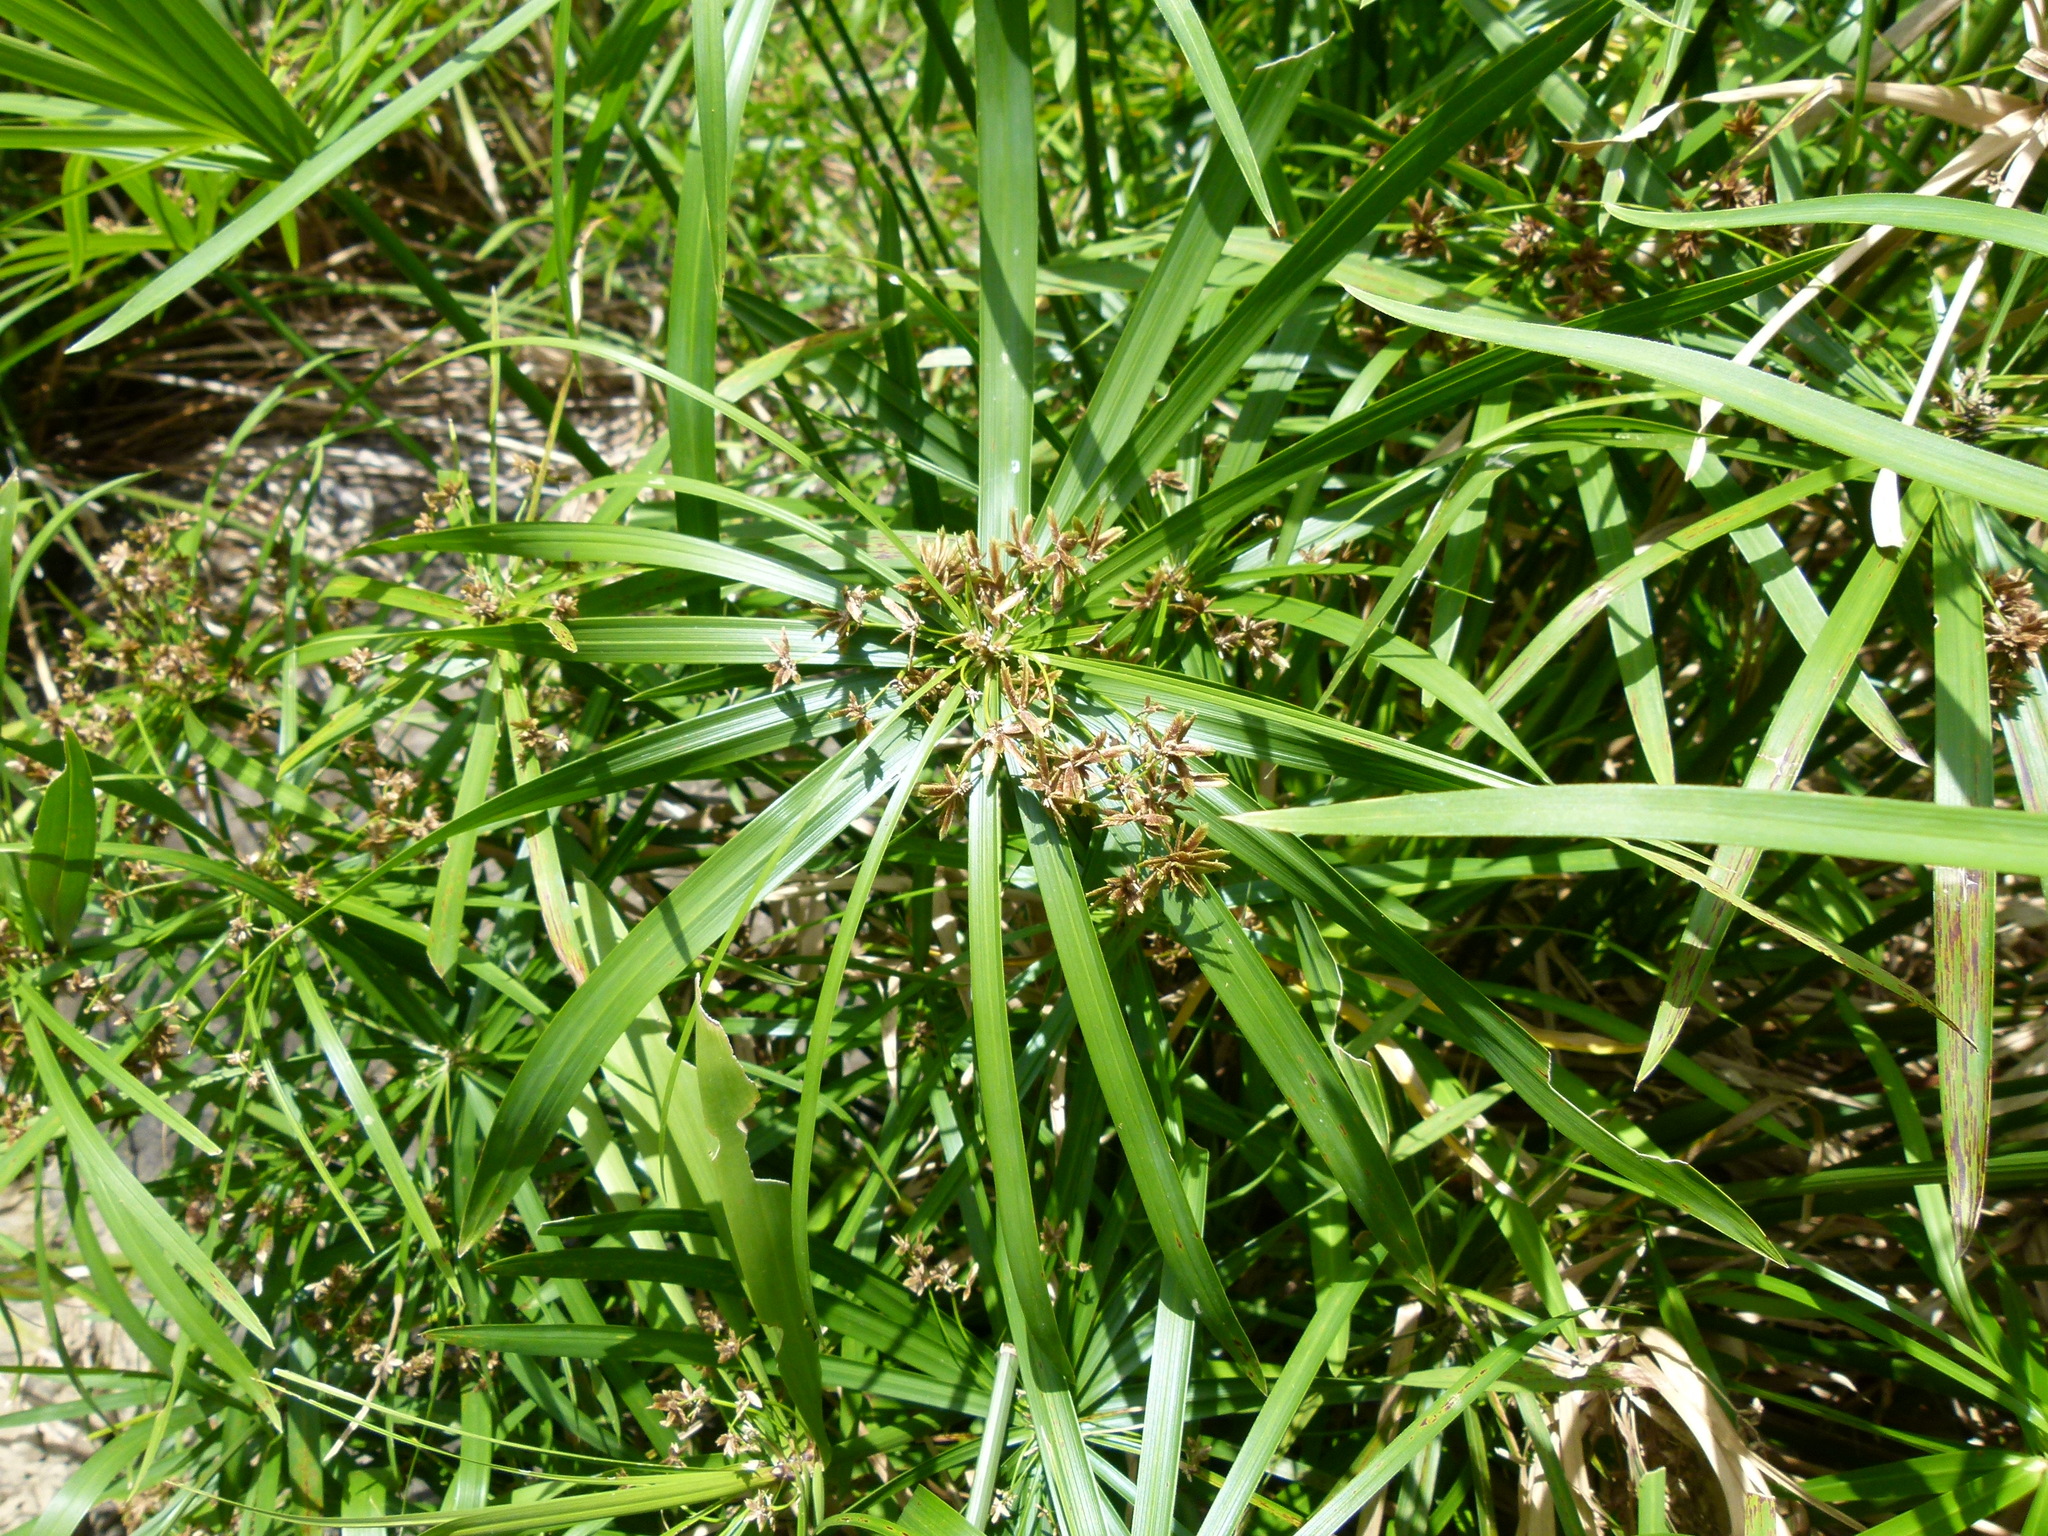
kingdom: Plantae
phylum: Tracheophyta
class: Liliopsida
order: Poales
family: Cyperaceae
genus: Cyperus
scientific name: Cyperus alternifolius
